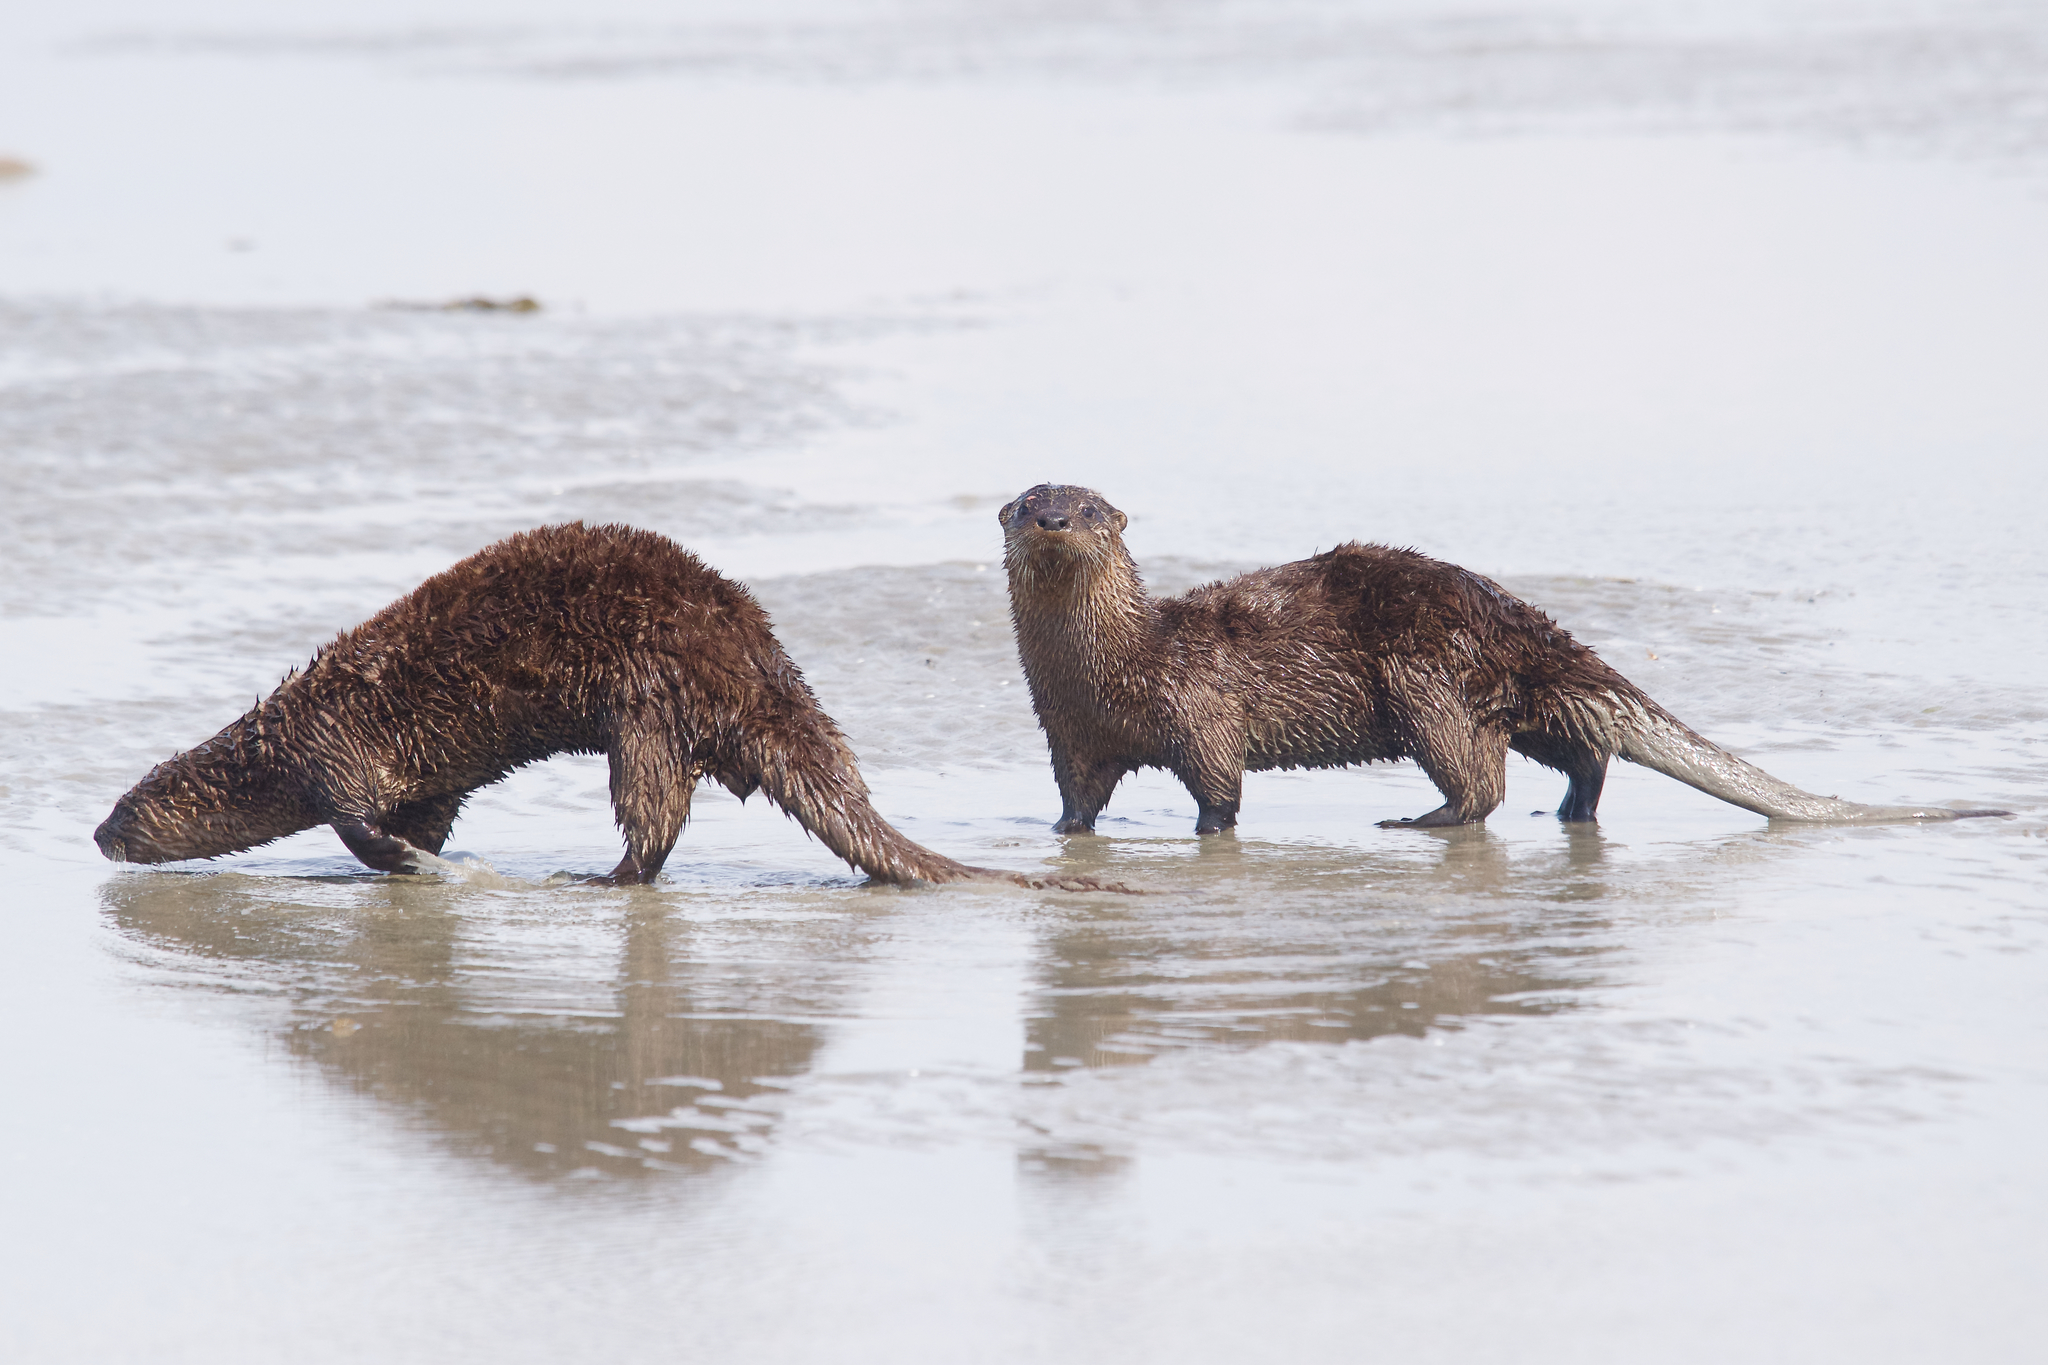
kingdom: Animalia
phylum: Chordata
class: Mammalia
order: Carnivora
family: Mustelidae
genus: Lontra
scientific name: Lontra canadensis
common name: North american river otter
